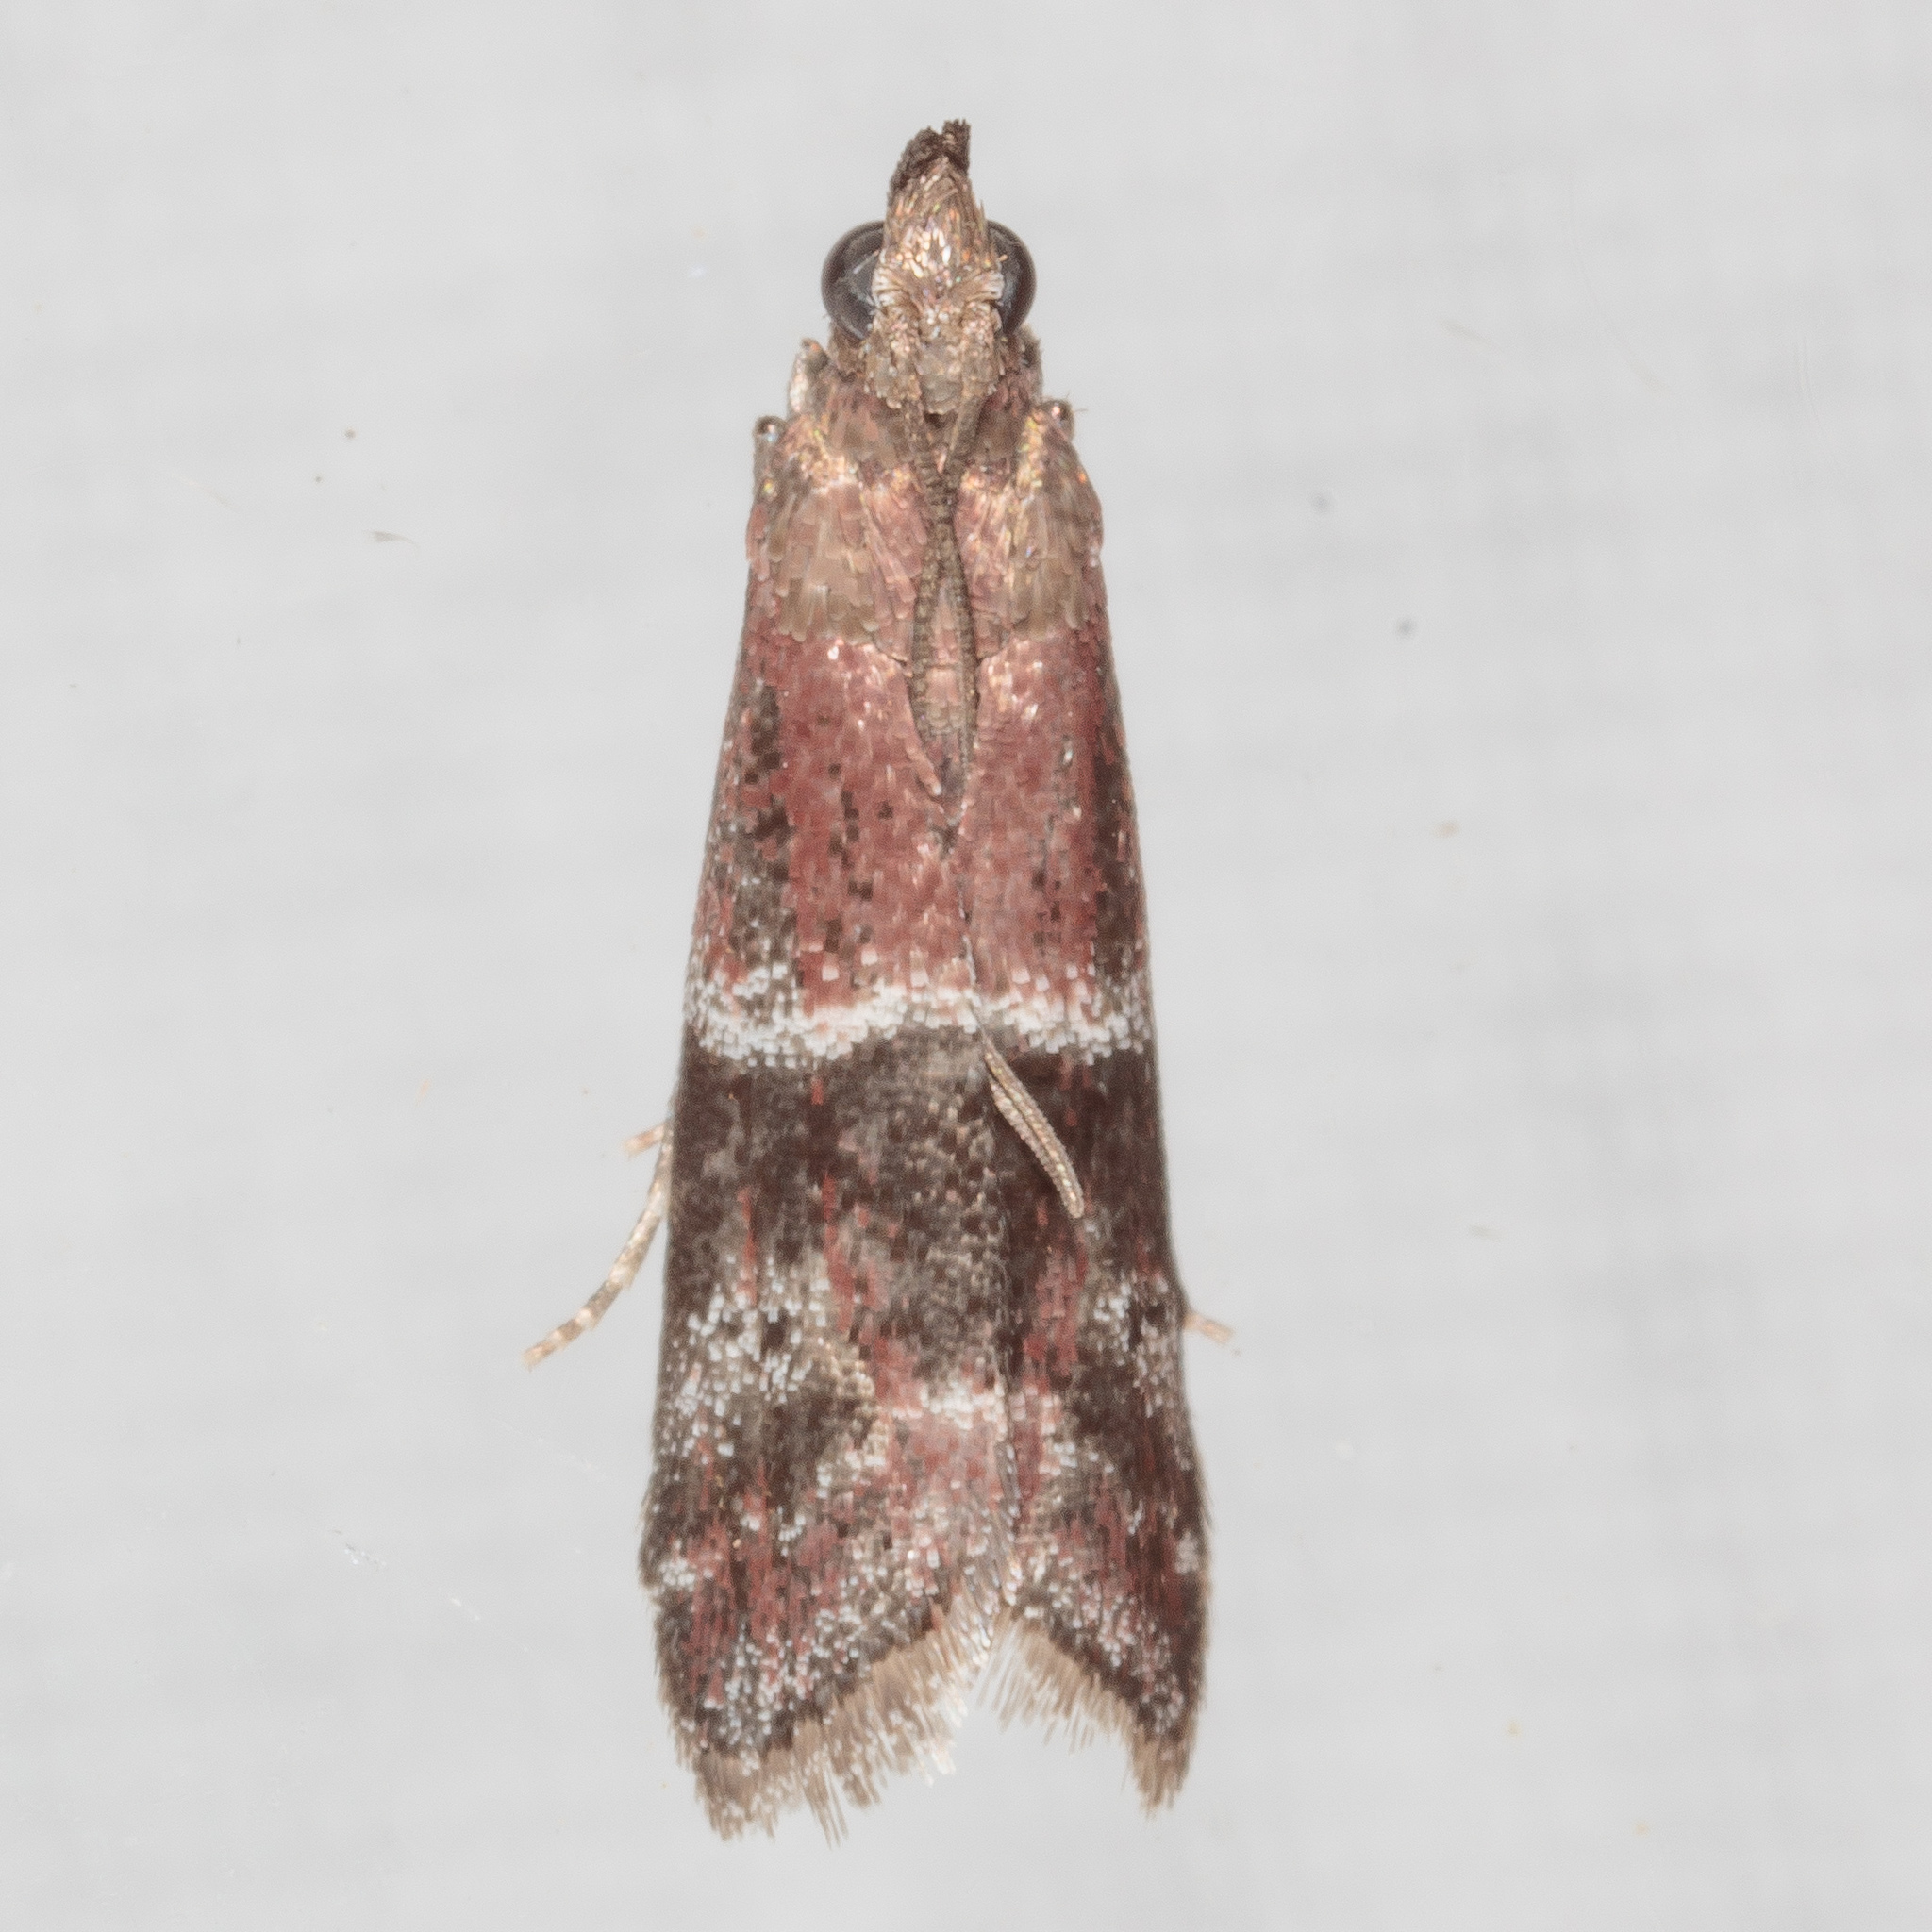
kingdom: Animalia
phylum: Arthropoda
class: Insecta
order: Lepidoptera
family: Pyralidae
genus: Moodna
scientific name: Moodna ostrinella
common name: Darker moodna moth
